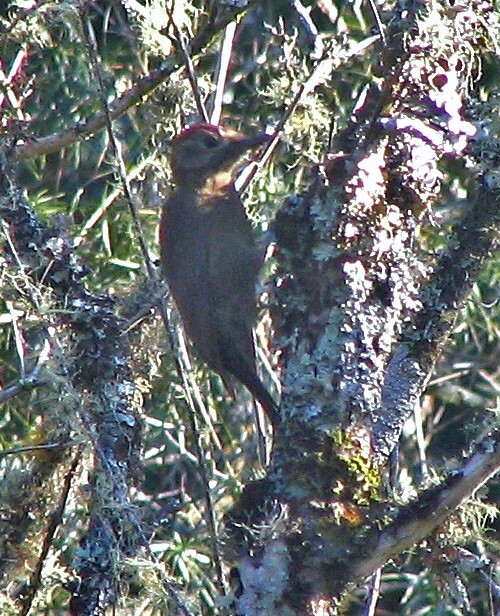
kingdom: Animalia
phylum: Chordata
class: Aves
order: Piciformes
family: Picidae
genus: Leuconotopicus
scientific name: Leuconotopicus fumigatus
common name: Smoky-brown woodpecker
